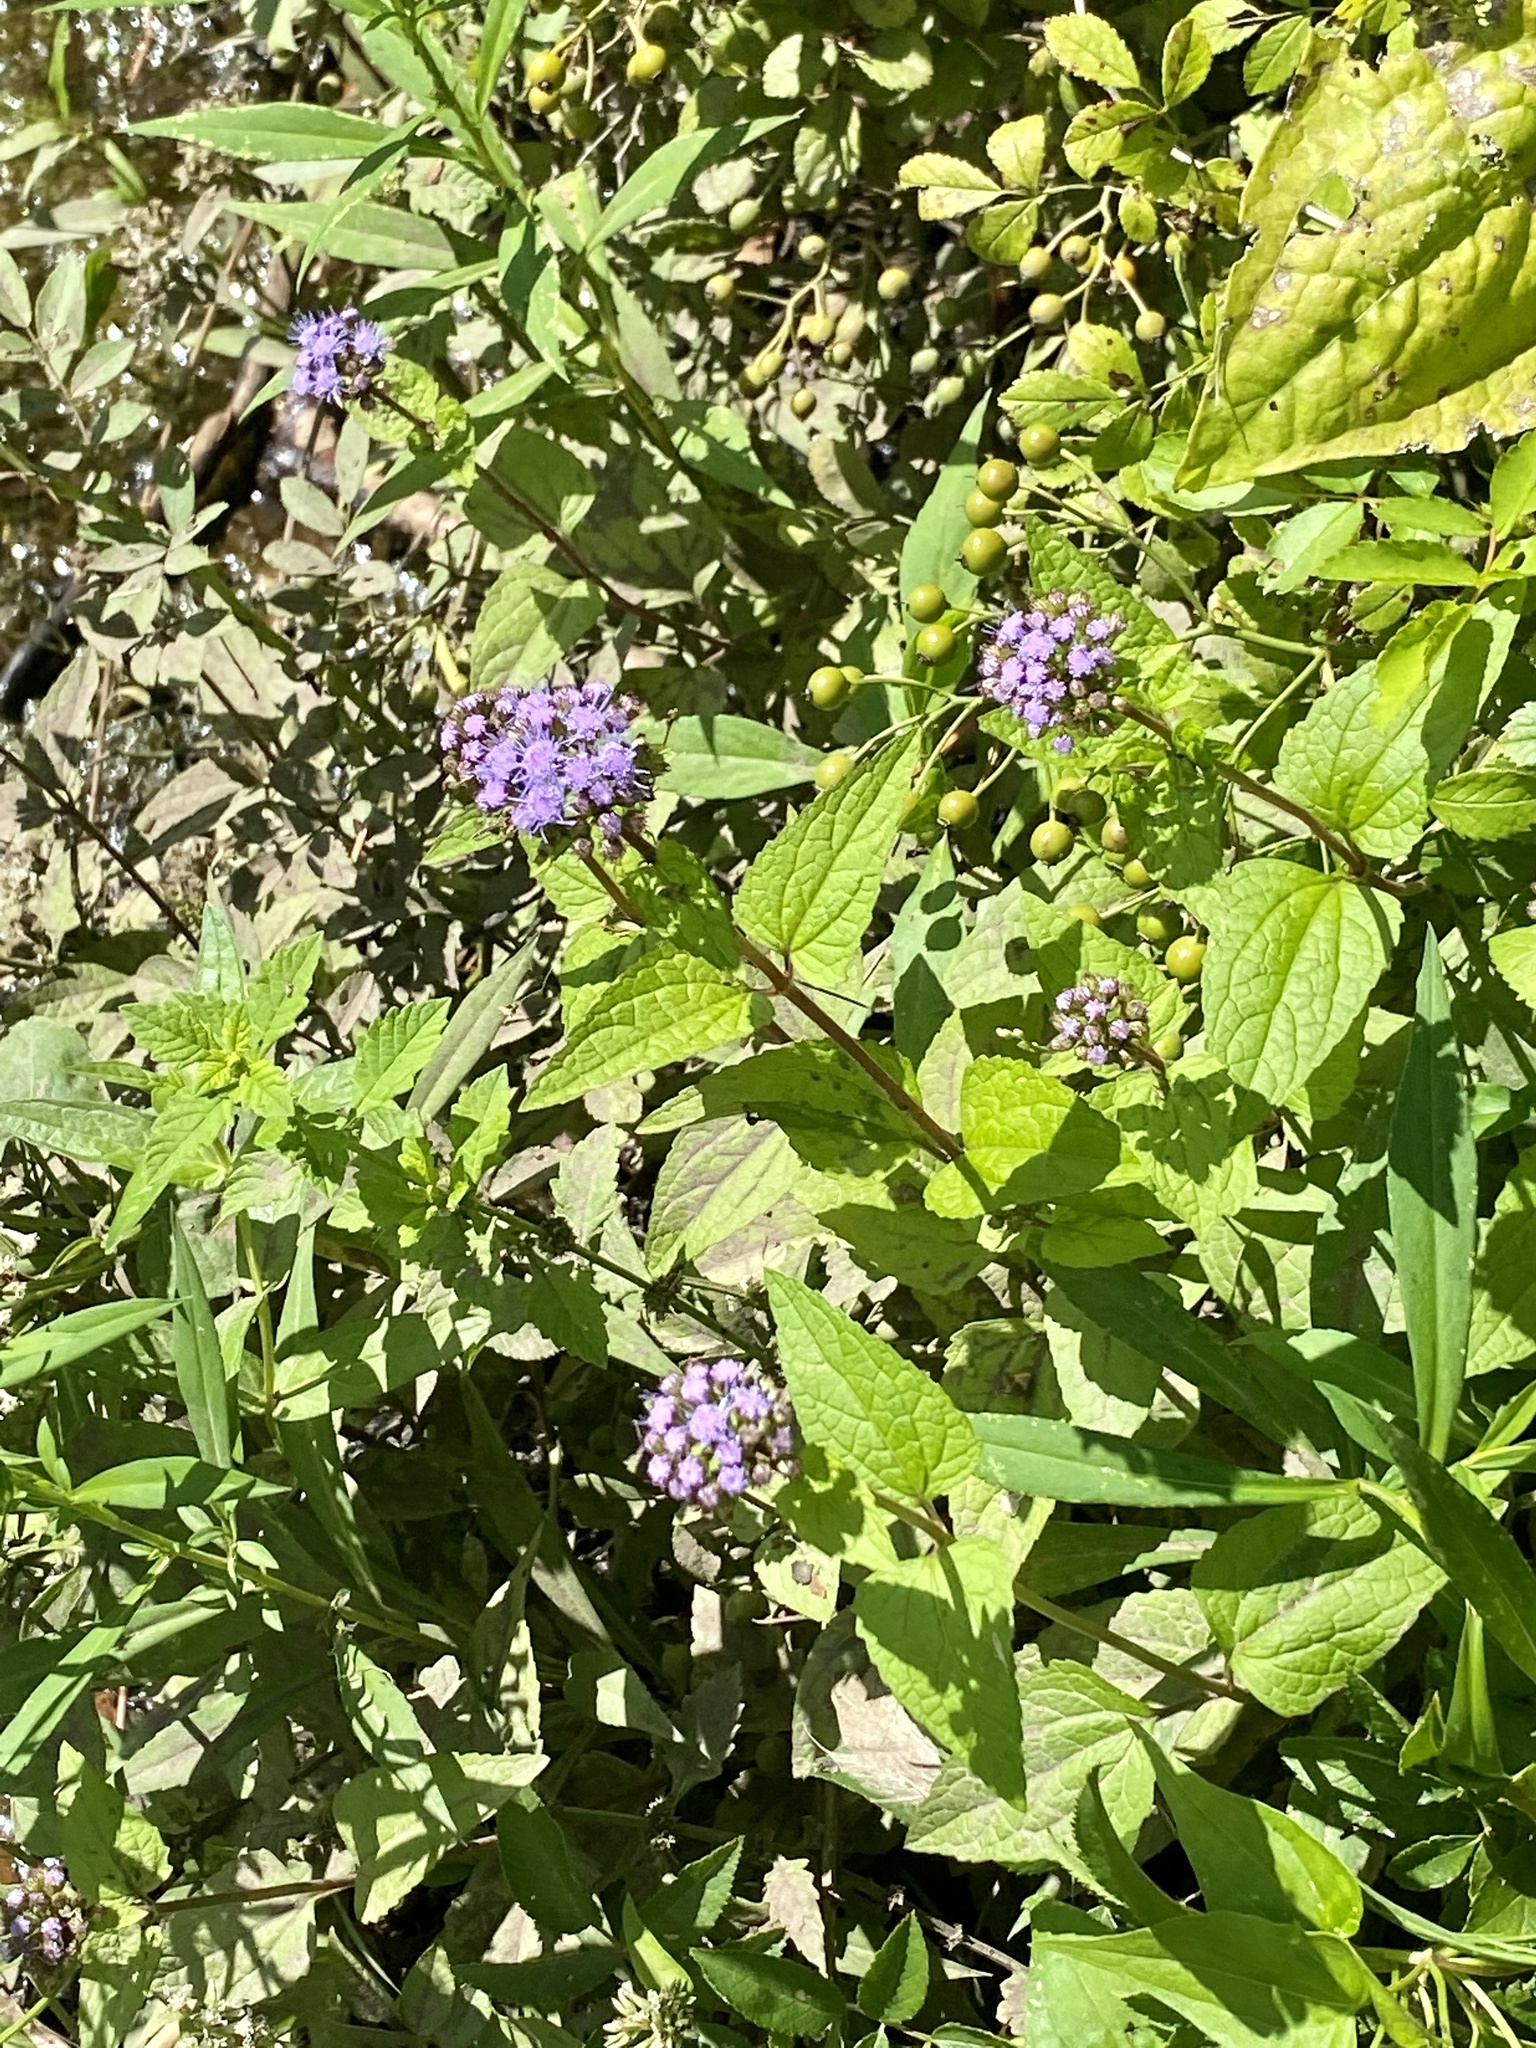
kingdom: Plantae
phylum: Tracheophyta
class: Magnoliopsida
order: Asterales
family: Asteraceae
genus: Conoclinium
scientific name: Conoclinium coelestinum
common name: Blue mistflower
